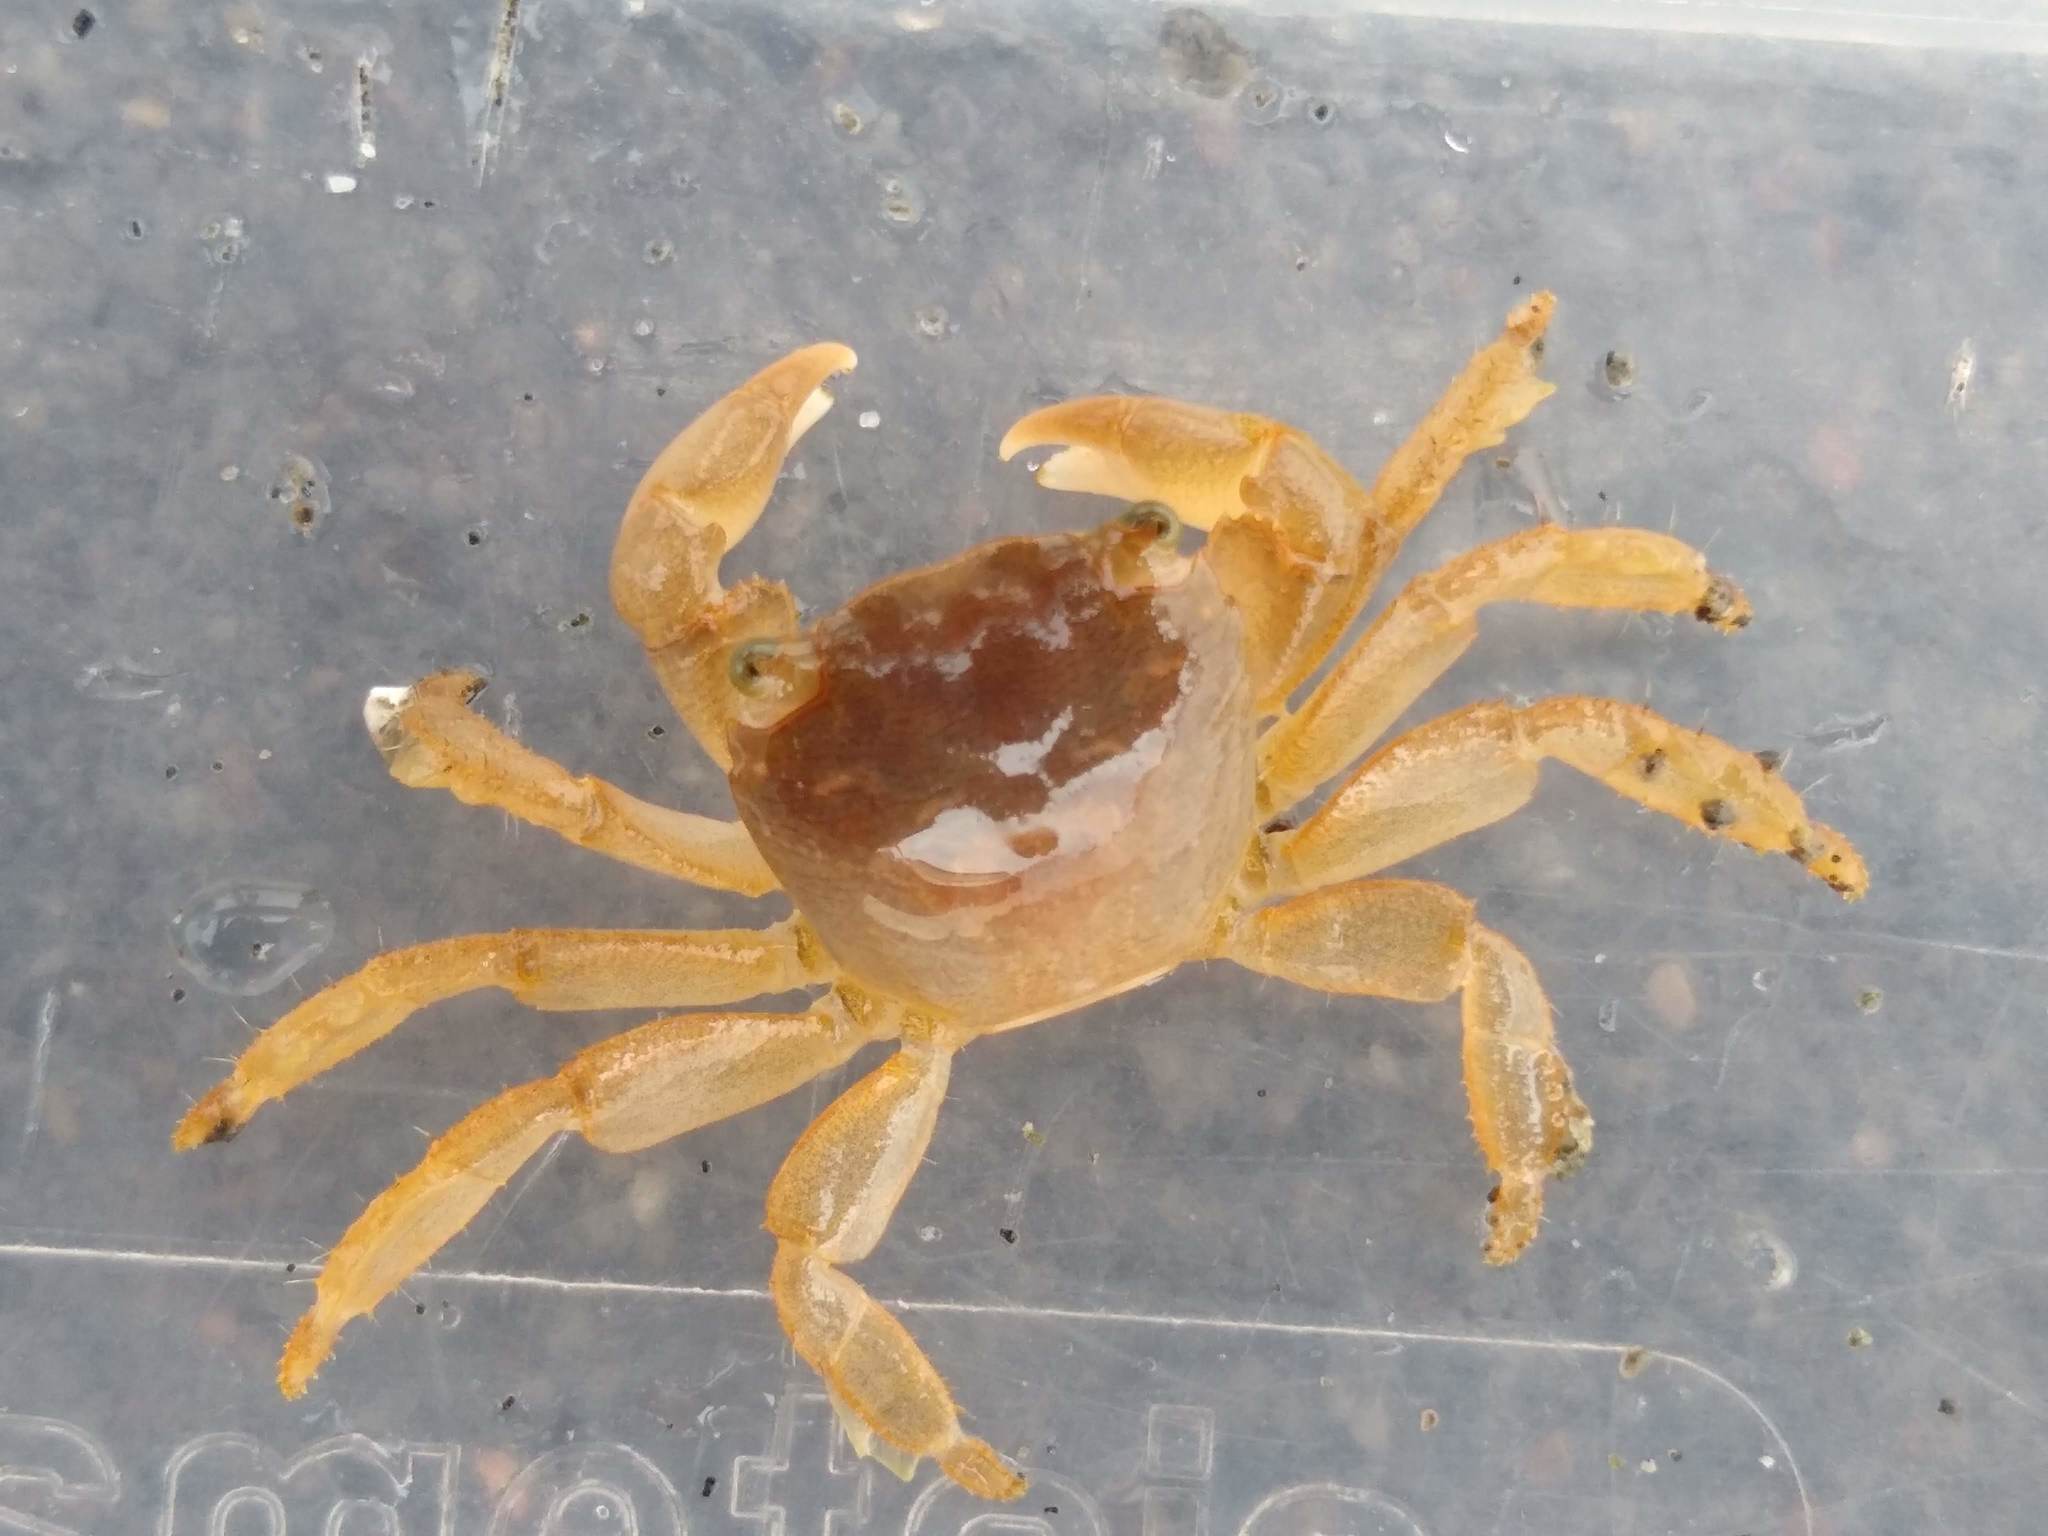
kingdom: Animalia
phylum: Arthropoda
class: Malacostraca
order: Decapoda
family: Grapsidae
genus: Planes
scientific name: Planes minutus
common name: Gulf weed crab
